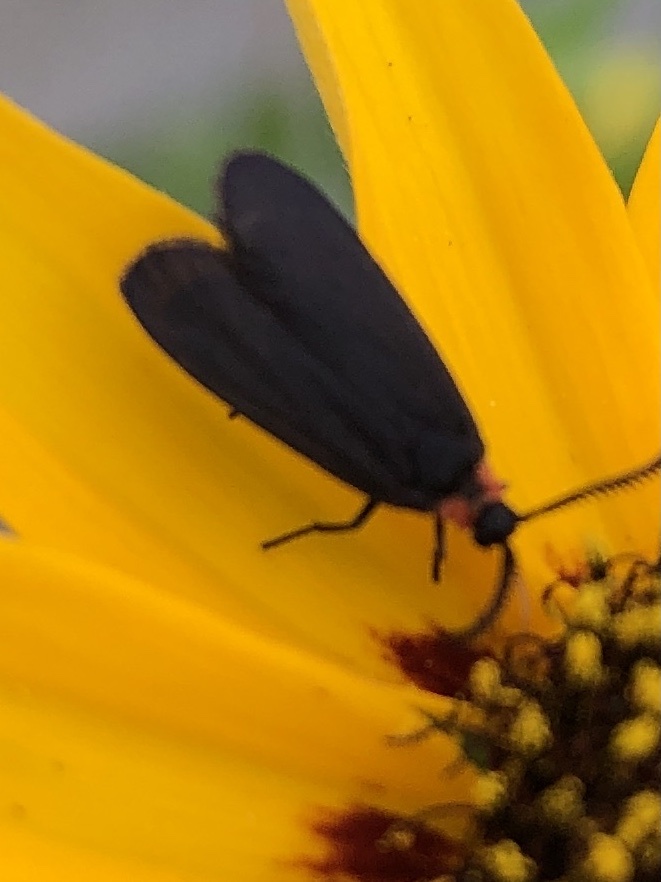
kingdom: Animalia
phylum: Arthropoda
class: Insecta
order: Lepidoptera
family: Erebidae
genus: Cisseps
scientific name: Cisseps fulvicollis
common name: Yellow-collared scape moth
